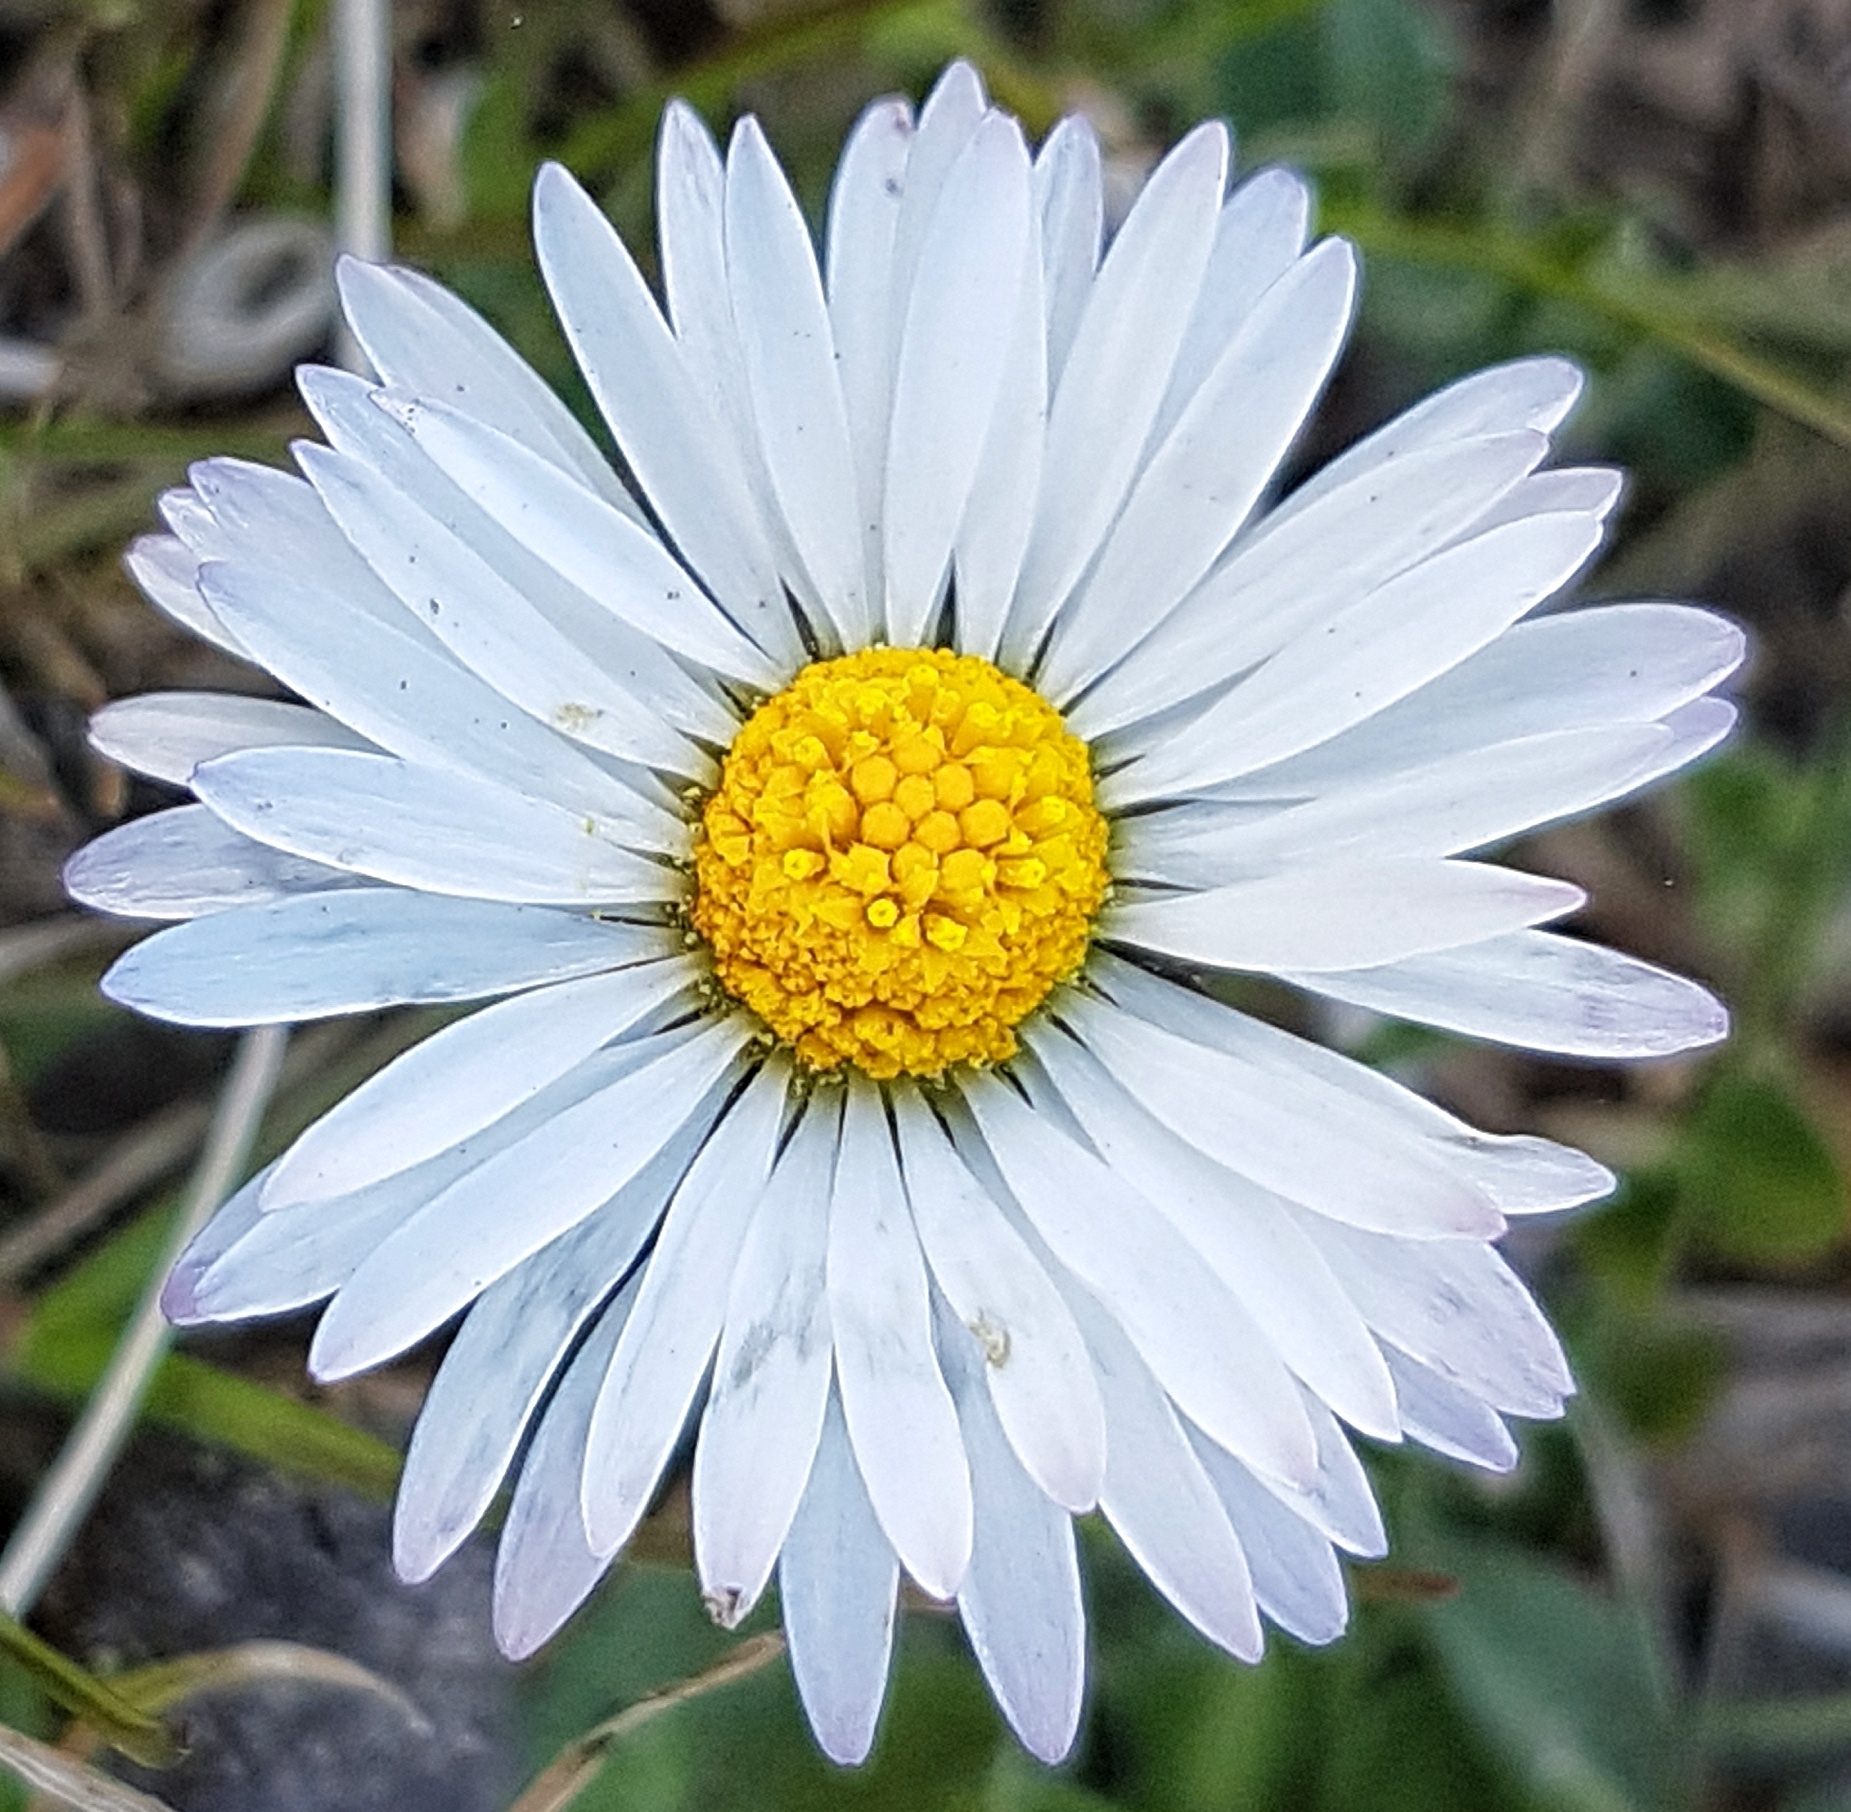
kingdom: Plantae
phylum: Tracheophyta
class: Magnoliopsida
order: Asterales
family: Asteraceae
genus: Bellis
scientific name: Bellis perennis
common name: Lawndaisy
